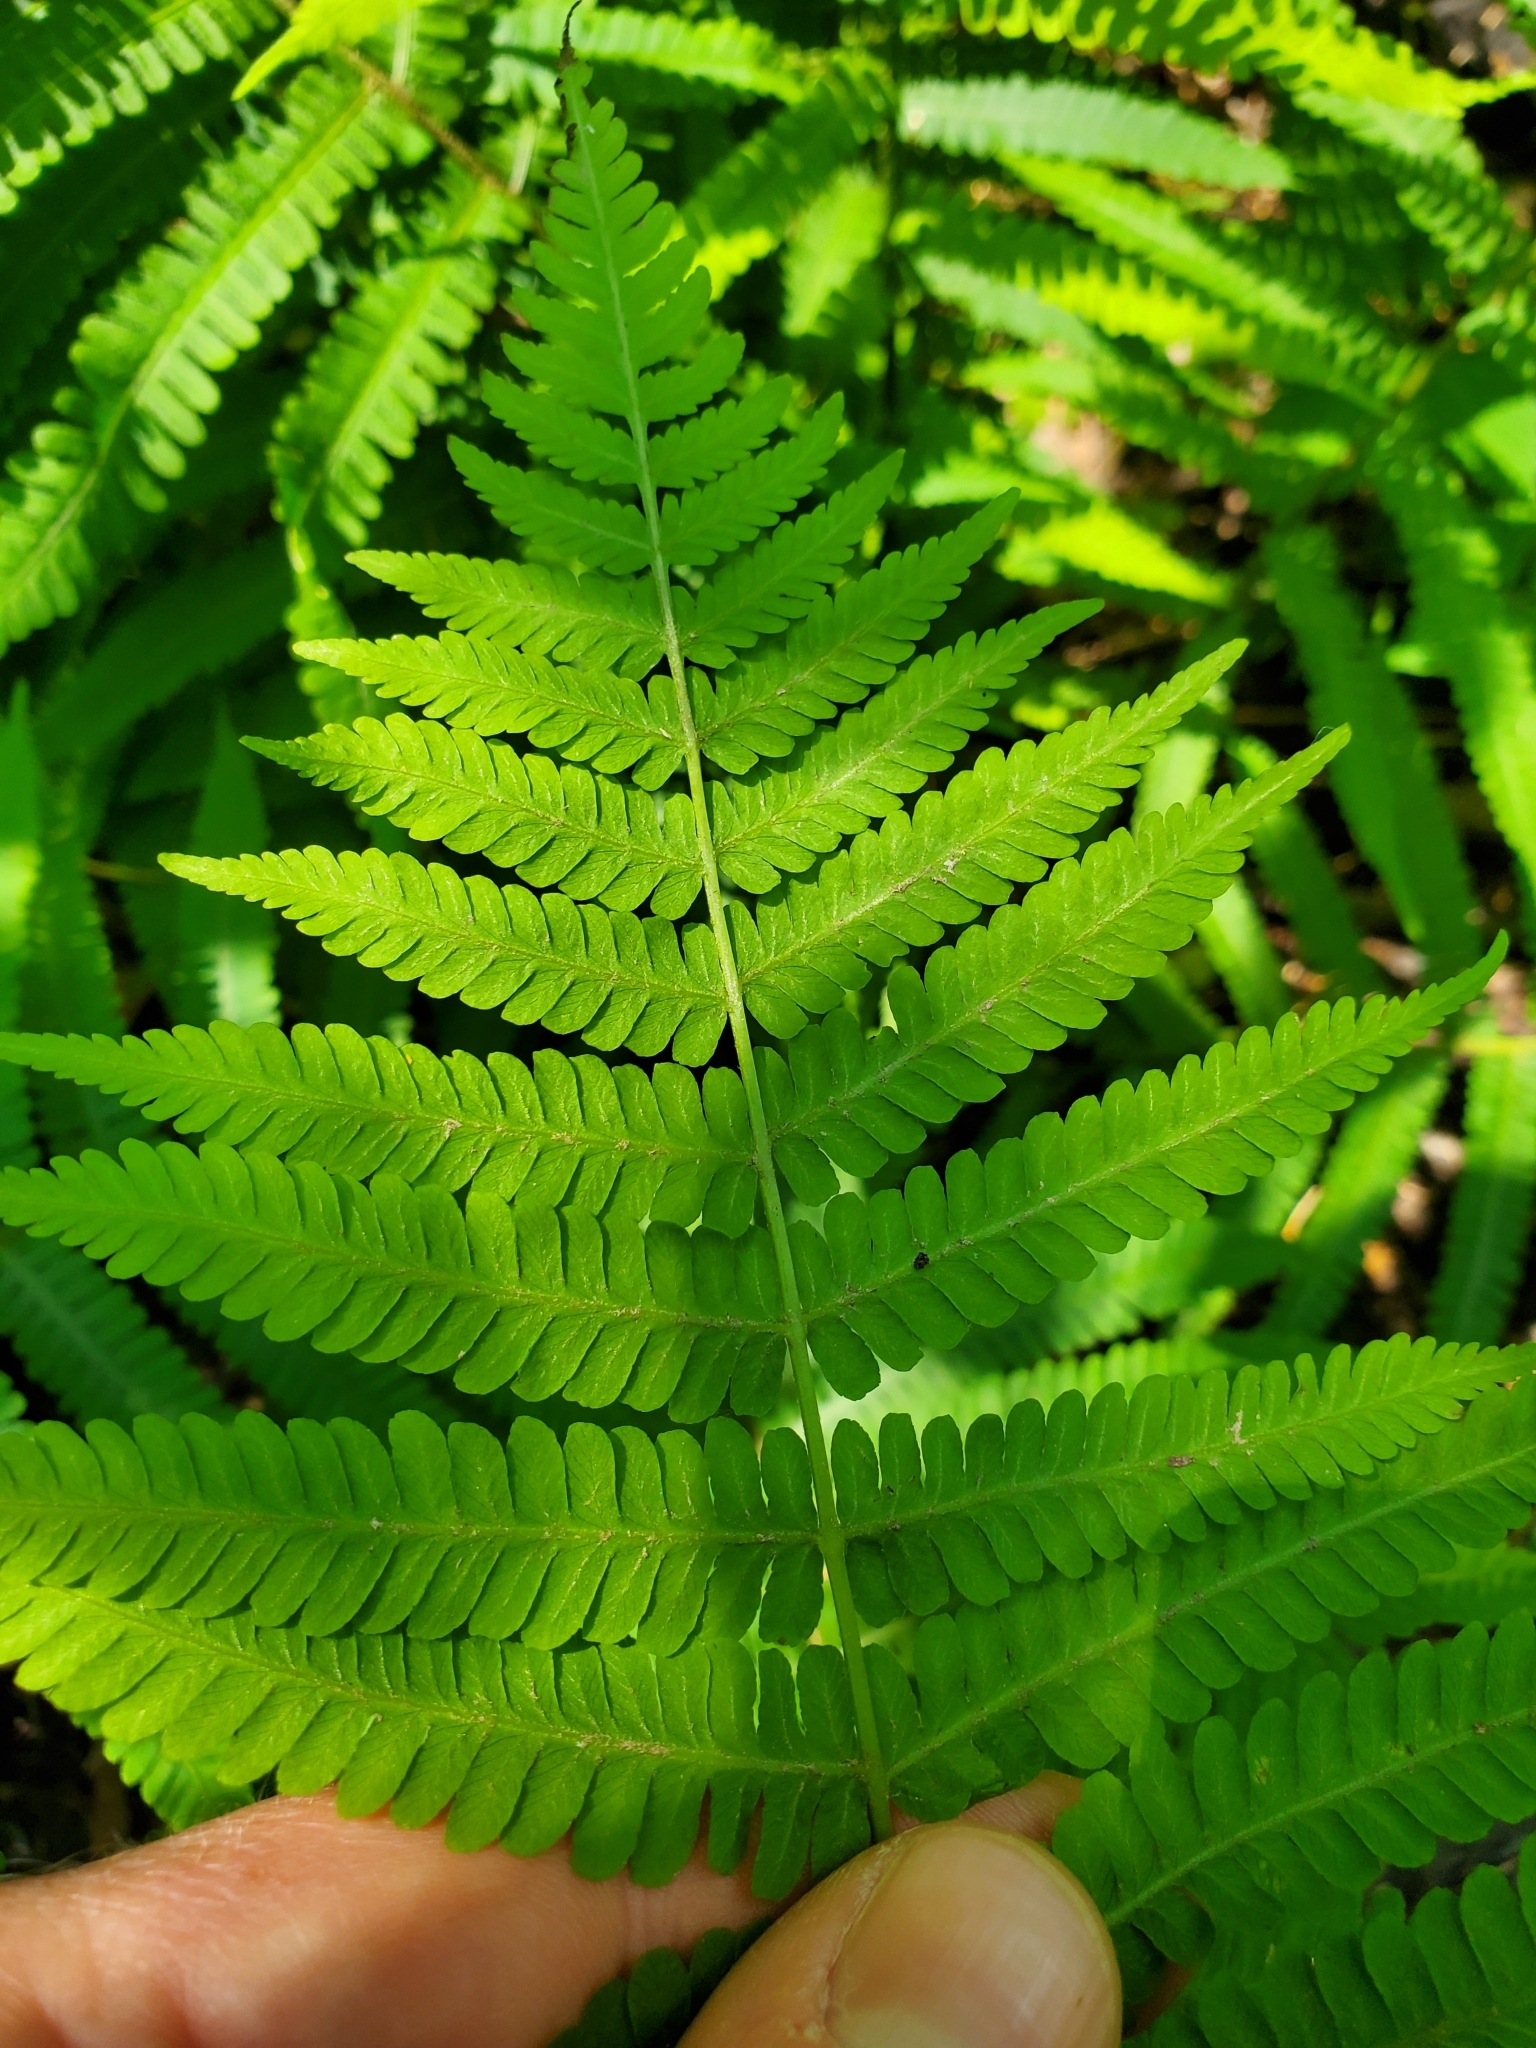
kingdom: Plantae
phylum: Tracheophyta
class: Polypodiopsida
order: Polypodiales
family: Athyriaceae
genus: Deparia
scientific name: Deparia acrostichoides
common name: Silver false spleenwort
